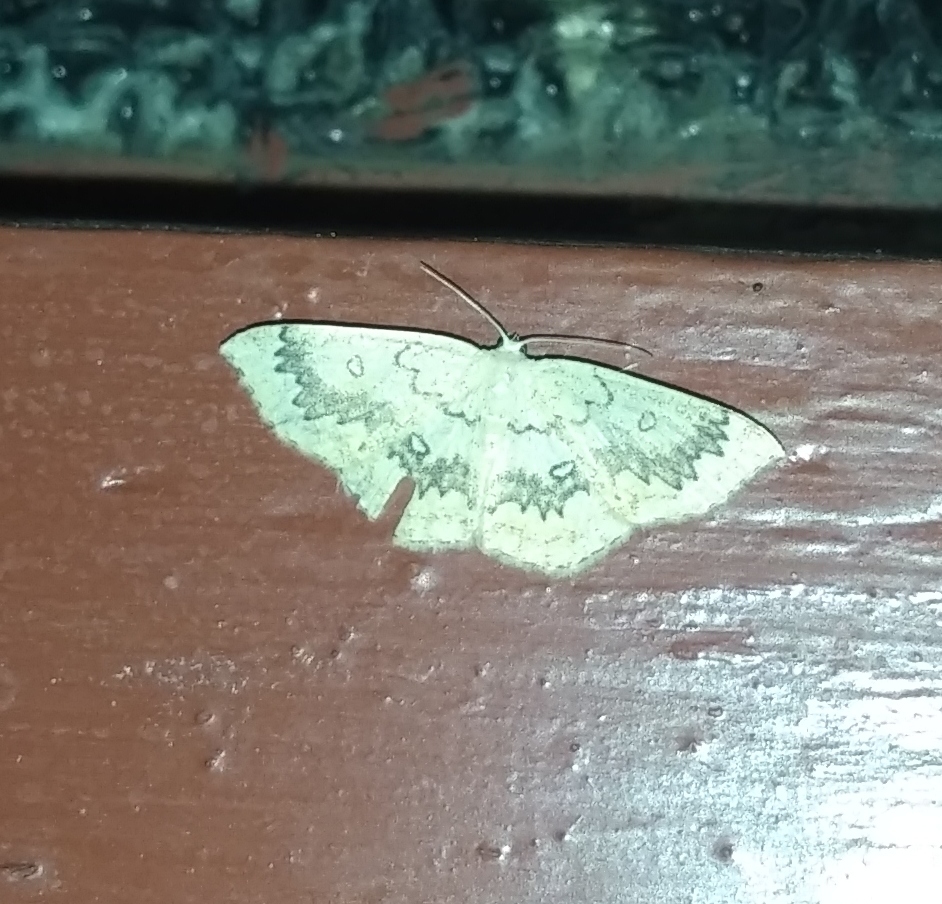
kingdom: Animalia
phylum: Arthropoda
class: Insecta
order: Lepidoptera
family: Geometridae
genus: Cyclophora
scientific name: Cyclophora annularia
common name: Mocha
